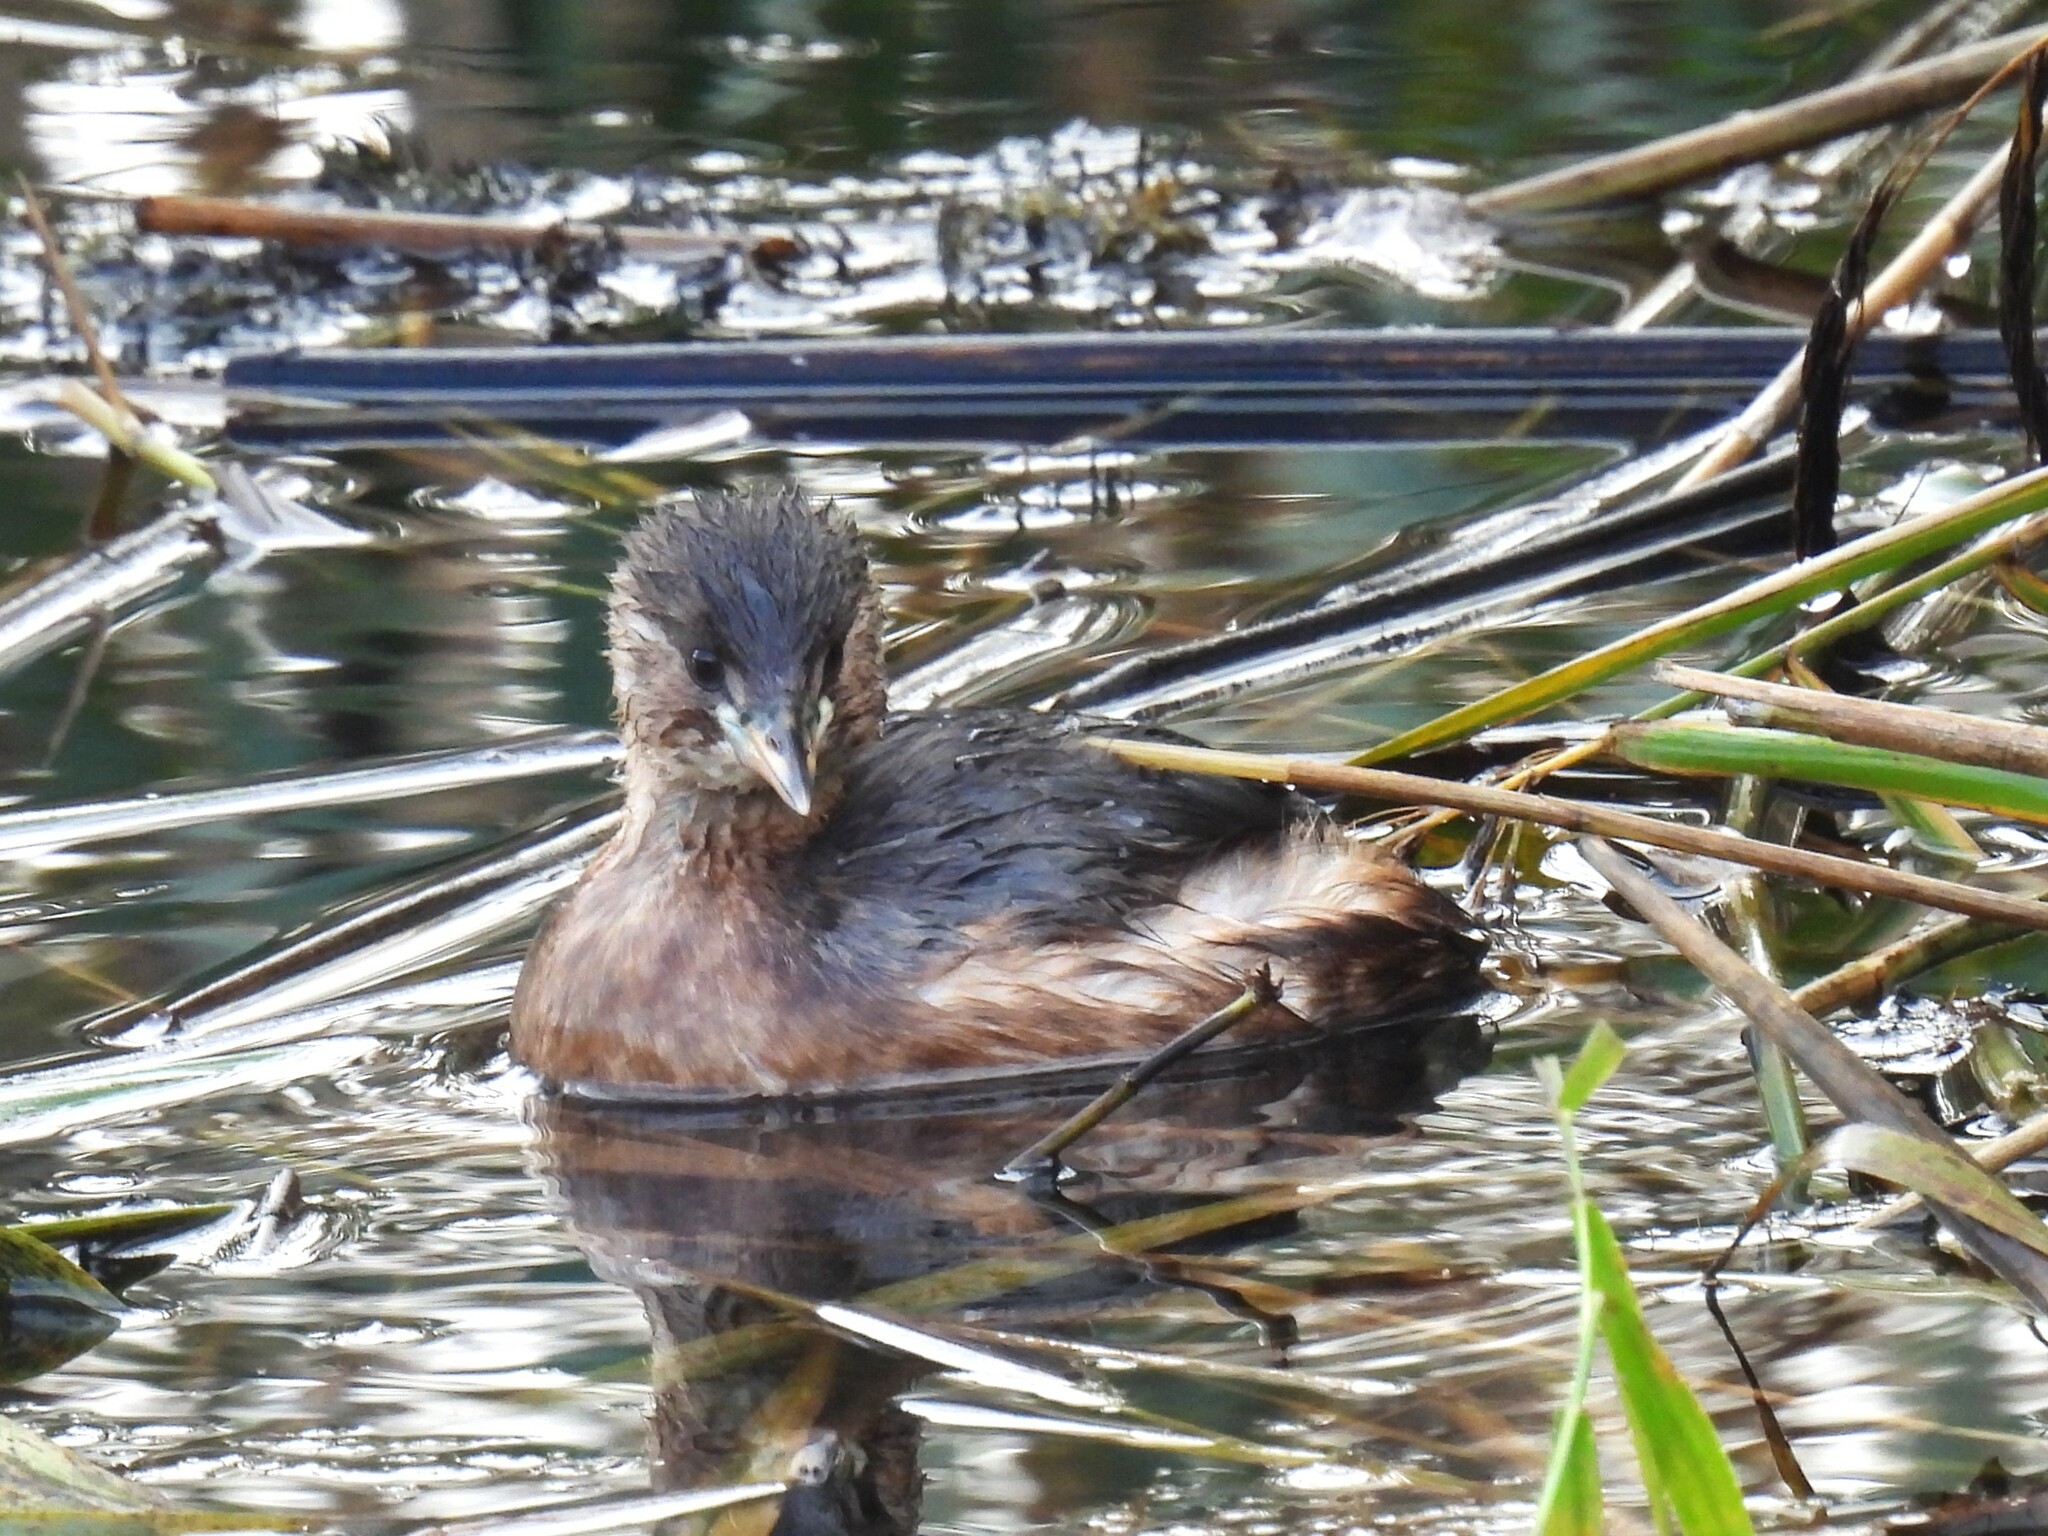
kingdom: Animalia
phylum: Chordata
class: Aves
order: Podicipediformes
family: Podicipedidae
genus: Tachybaptus
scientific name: Tachybaptus ruficollis
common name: Little grebe
